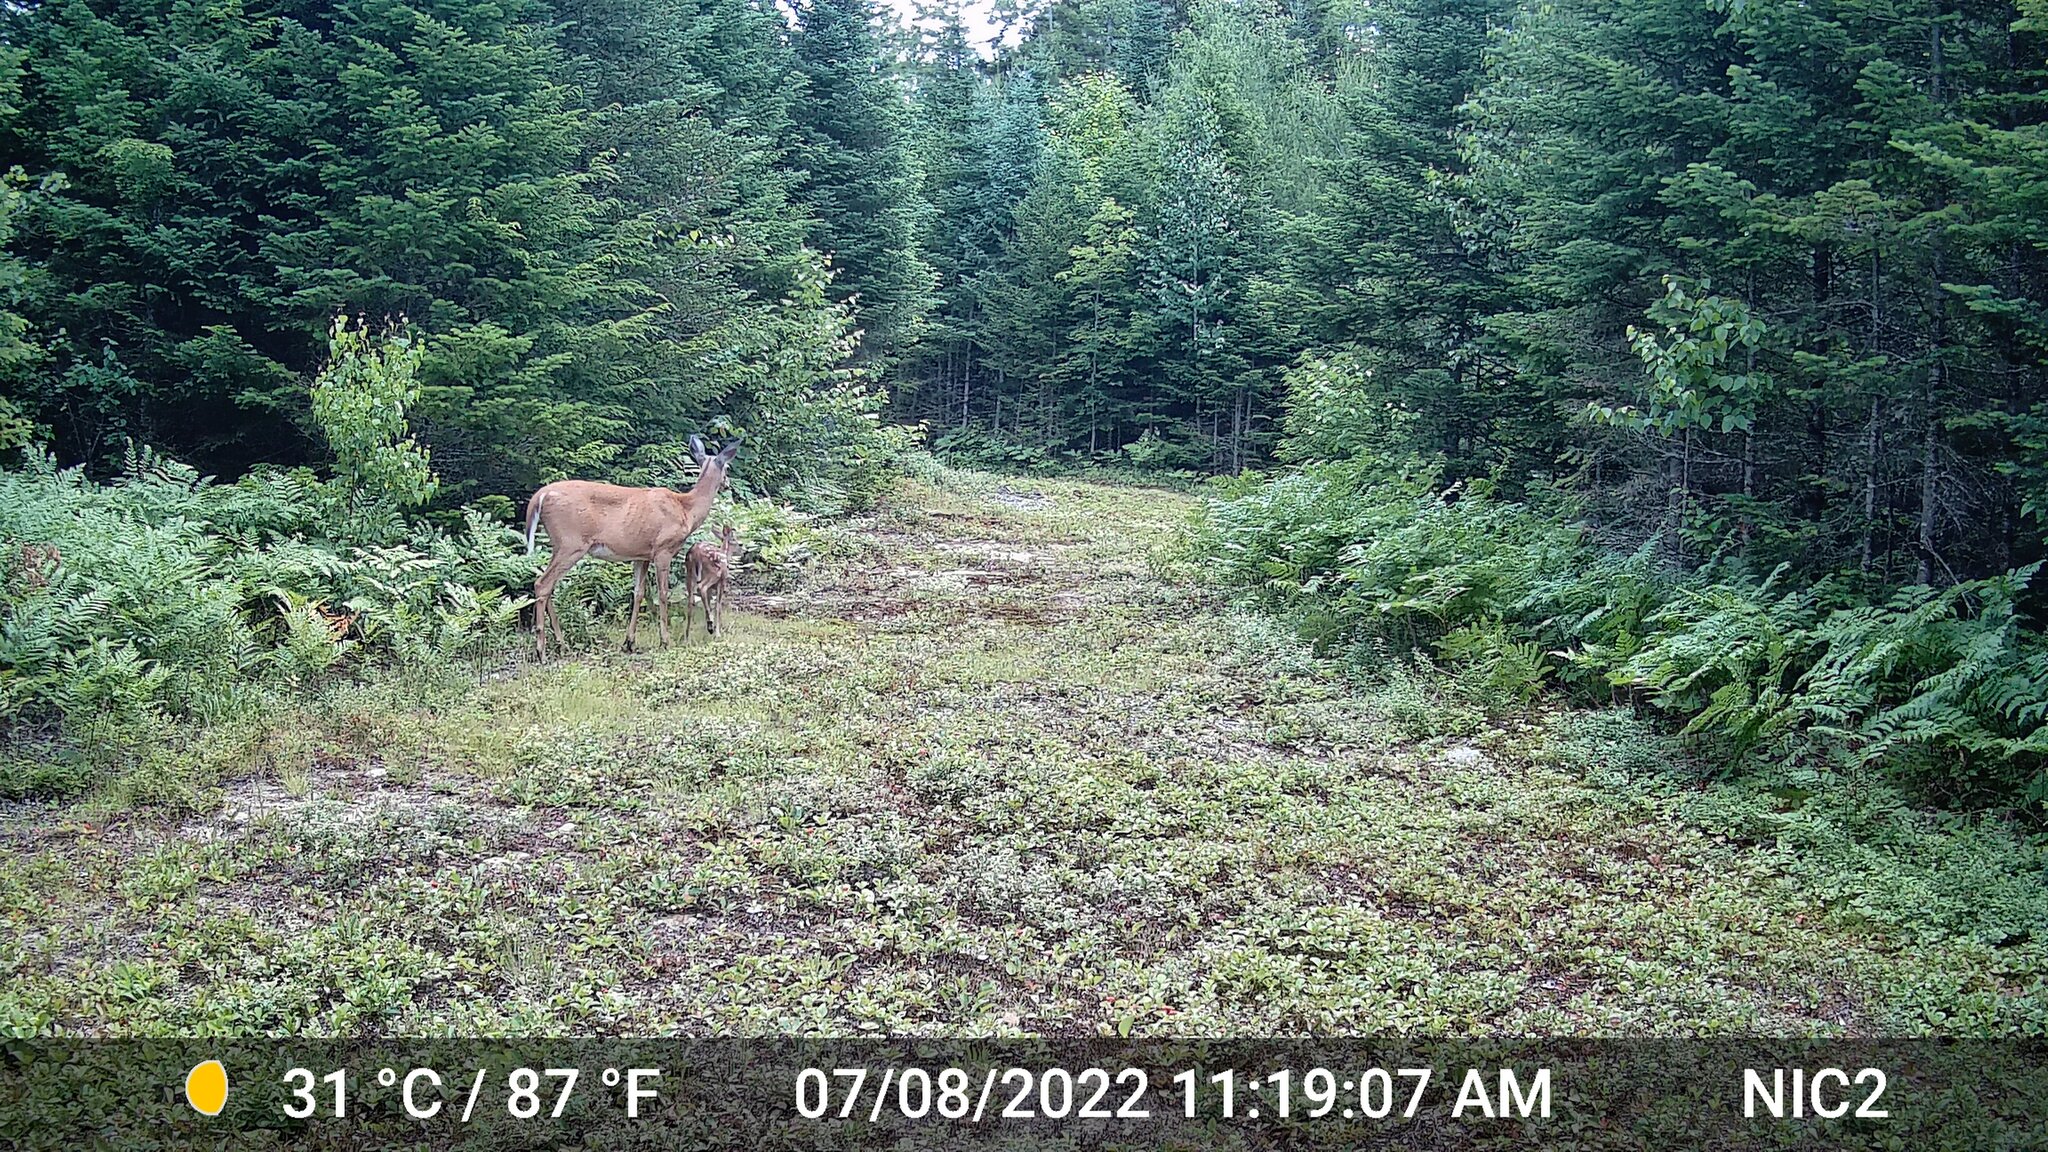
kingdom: Animalia
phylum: Chordata
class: Mammalia
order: Artiodactyla
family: Cervidae
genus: Odocoileus
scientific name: Odocoileus virginianus
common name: White-tailed deer
